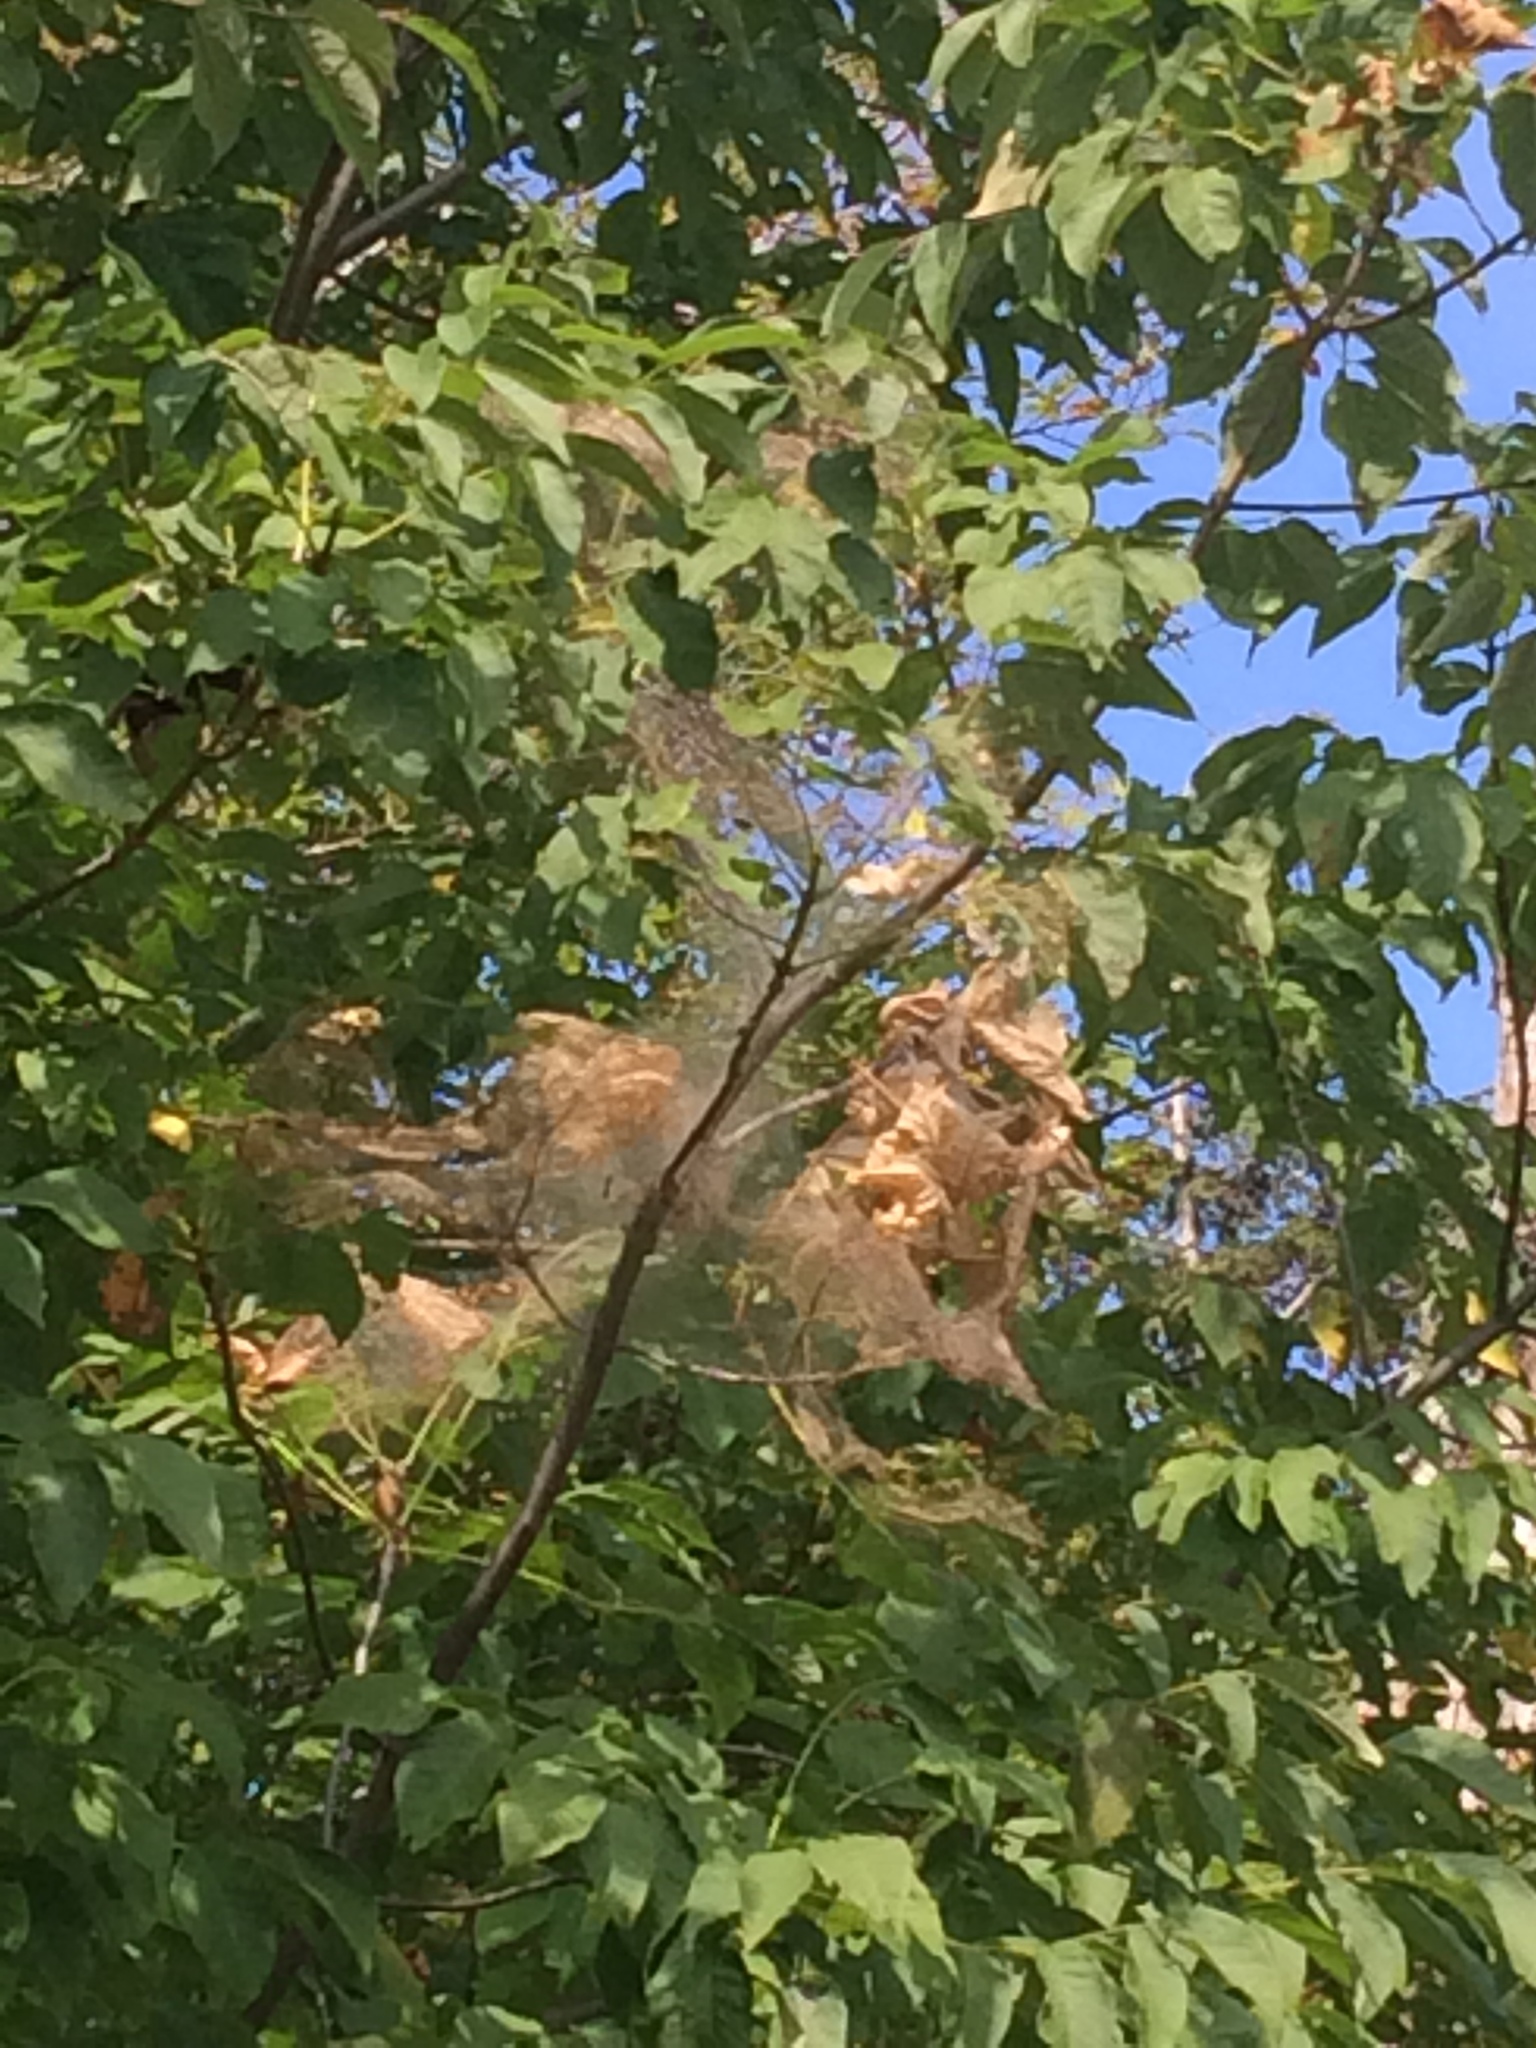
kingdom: Animalia
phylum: Arthropoda
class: Insecta
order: Lepidoptera
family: Erebidae
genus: Hyphantria
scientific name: Hyphantria cunea
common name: American white moth
